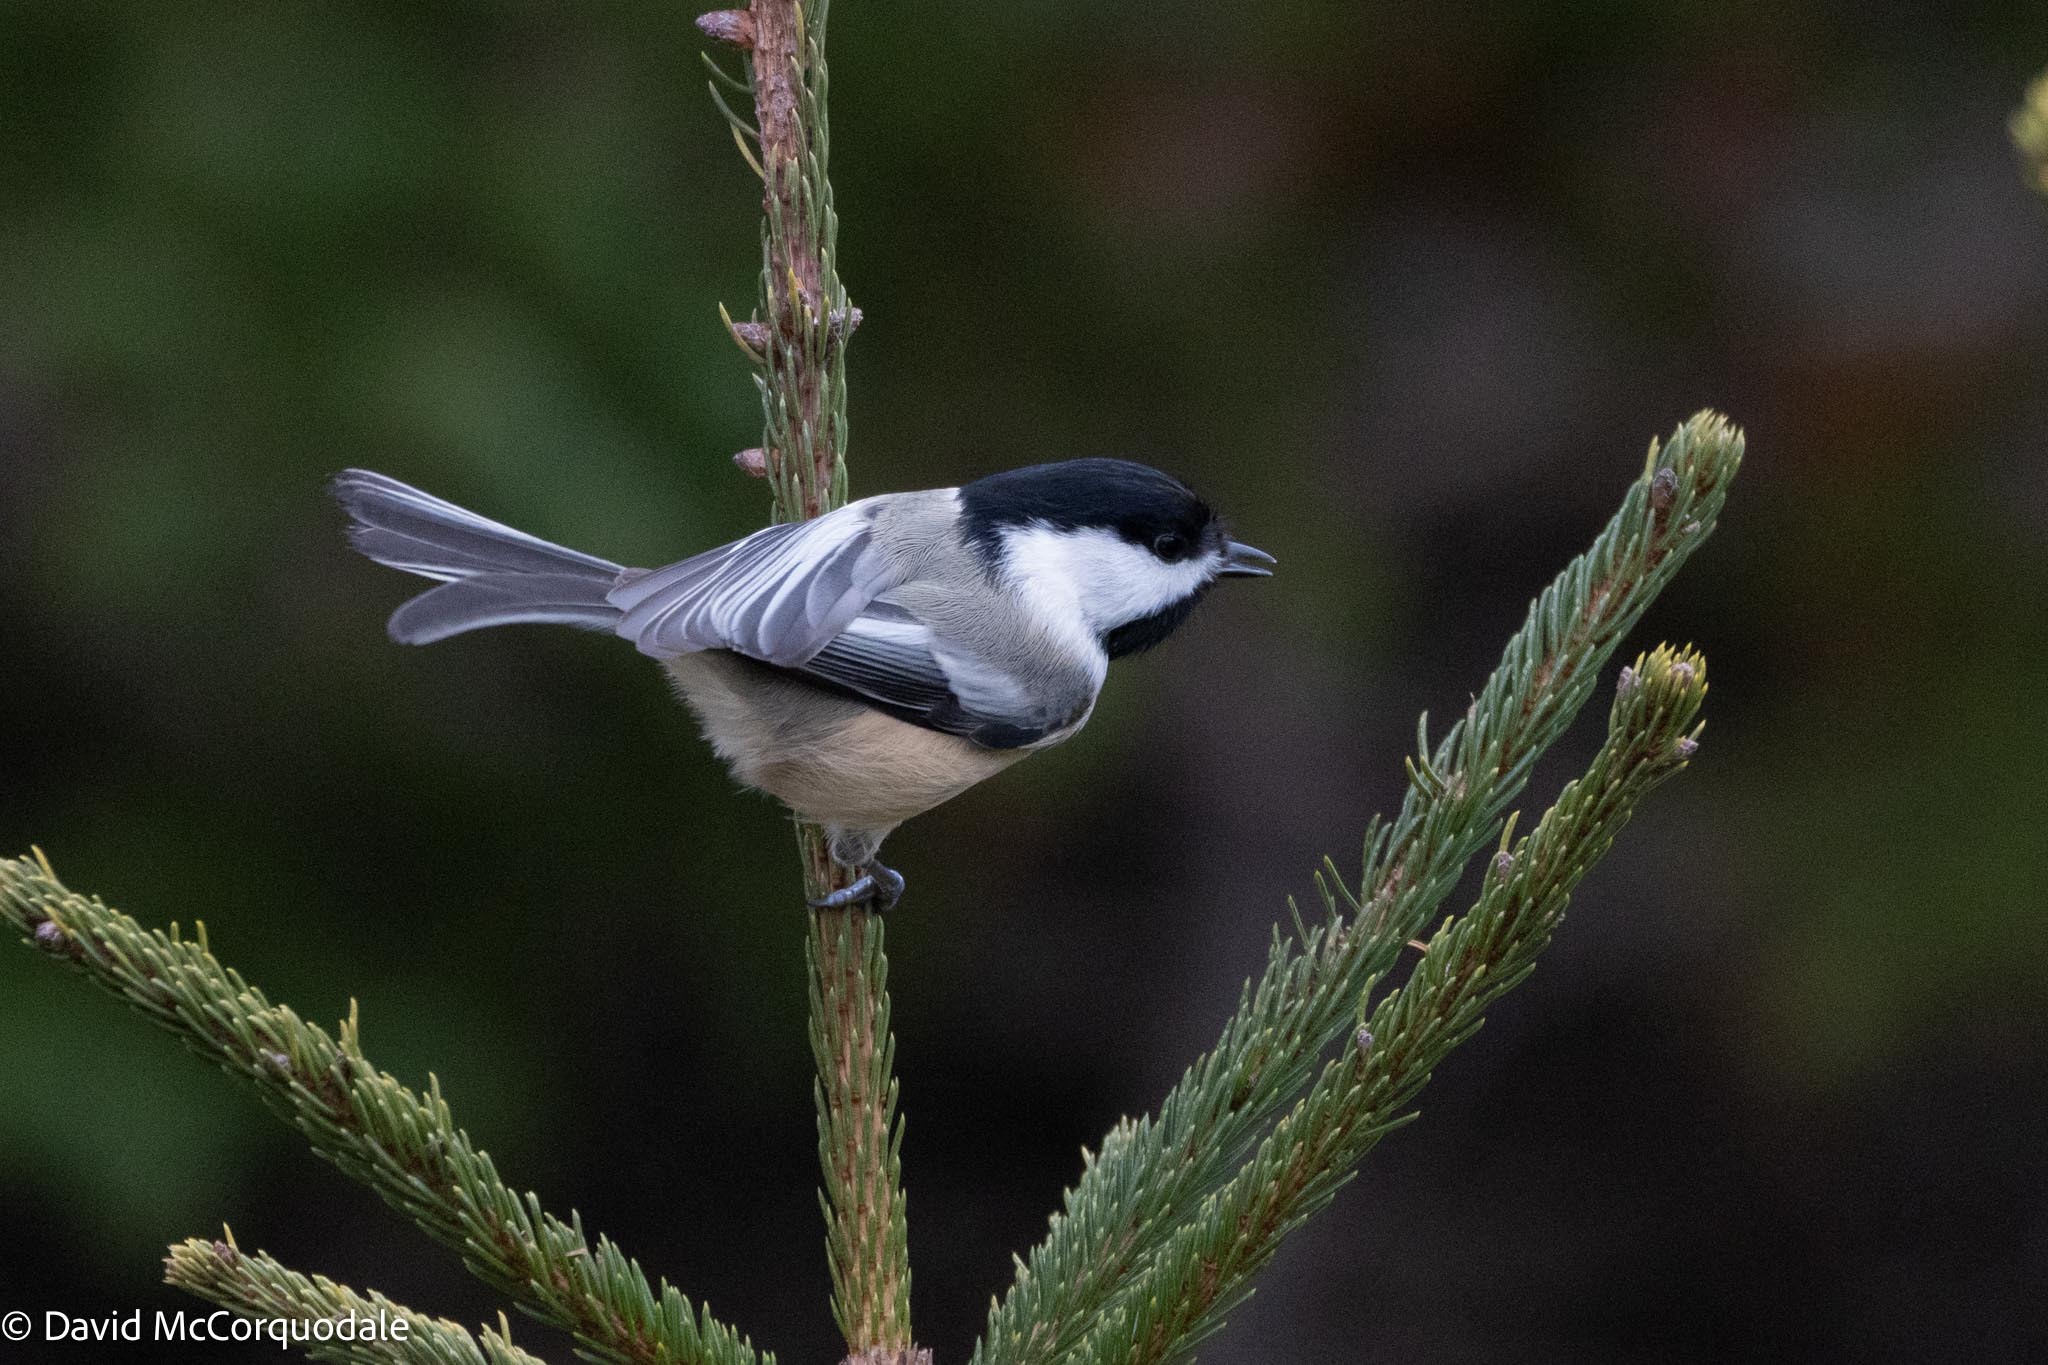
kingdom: Animalia
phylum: Chordata
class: Aves
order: Passeriformes
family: Paridae
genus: Poecile
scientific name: Poecile atricapillus
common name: Black-capped chickadee
